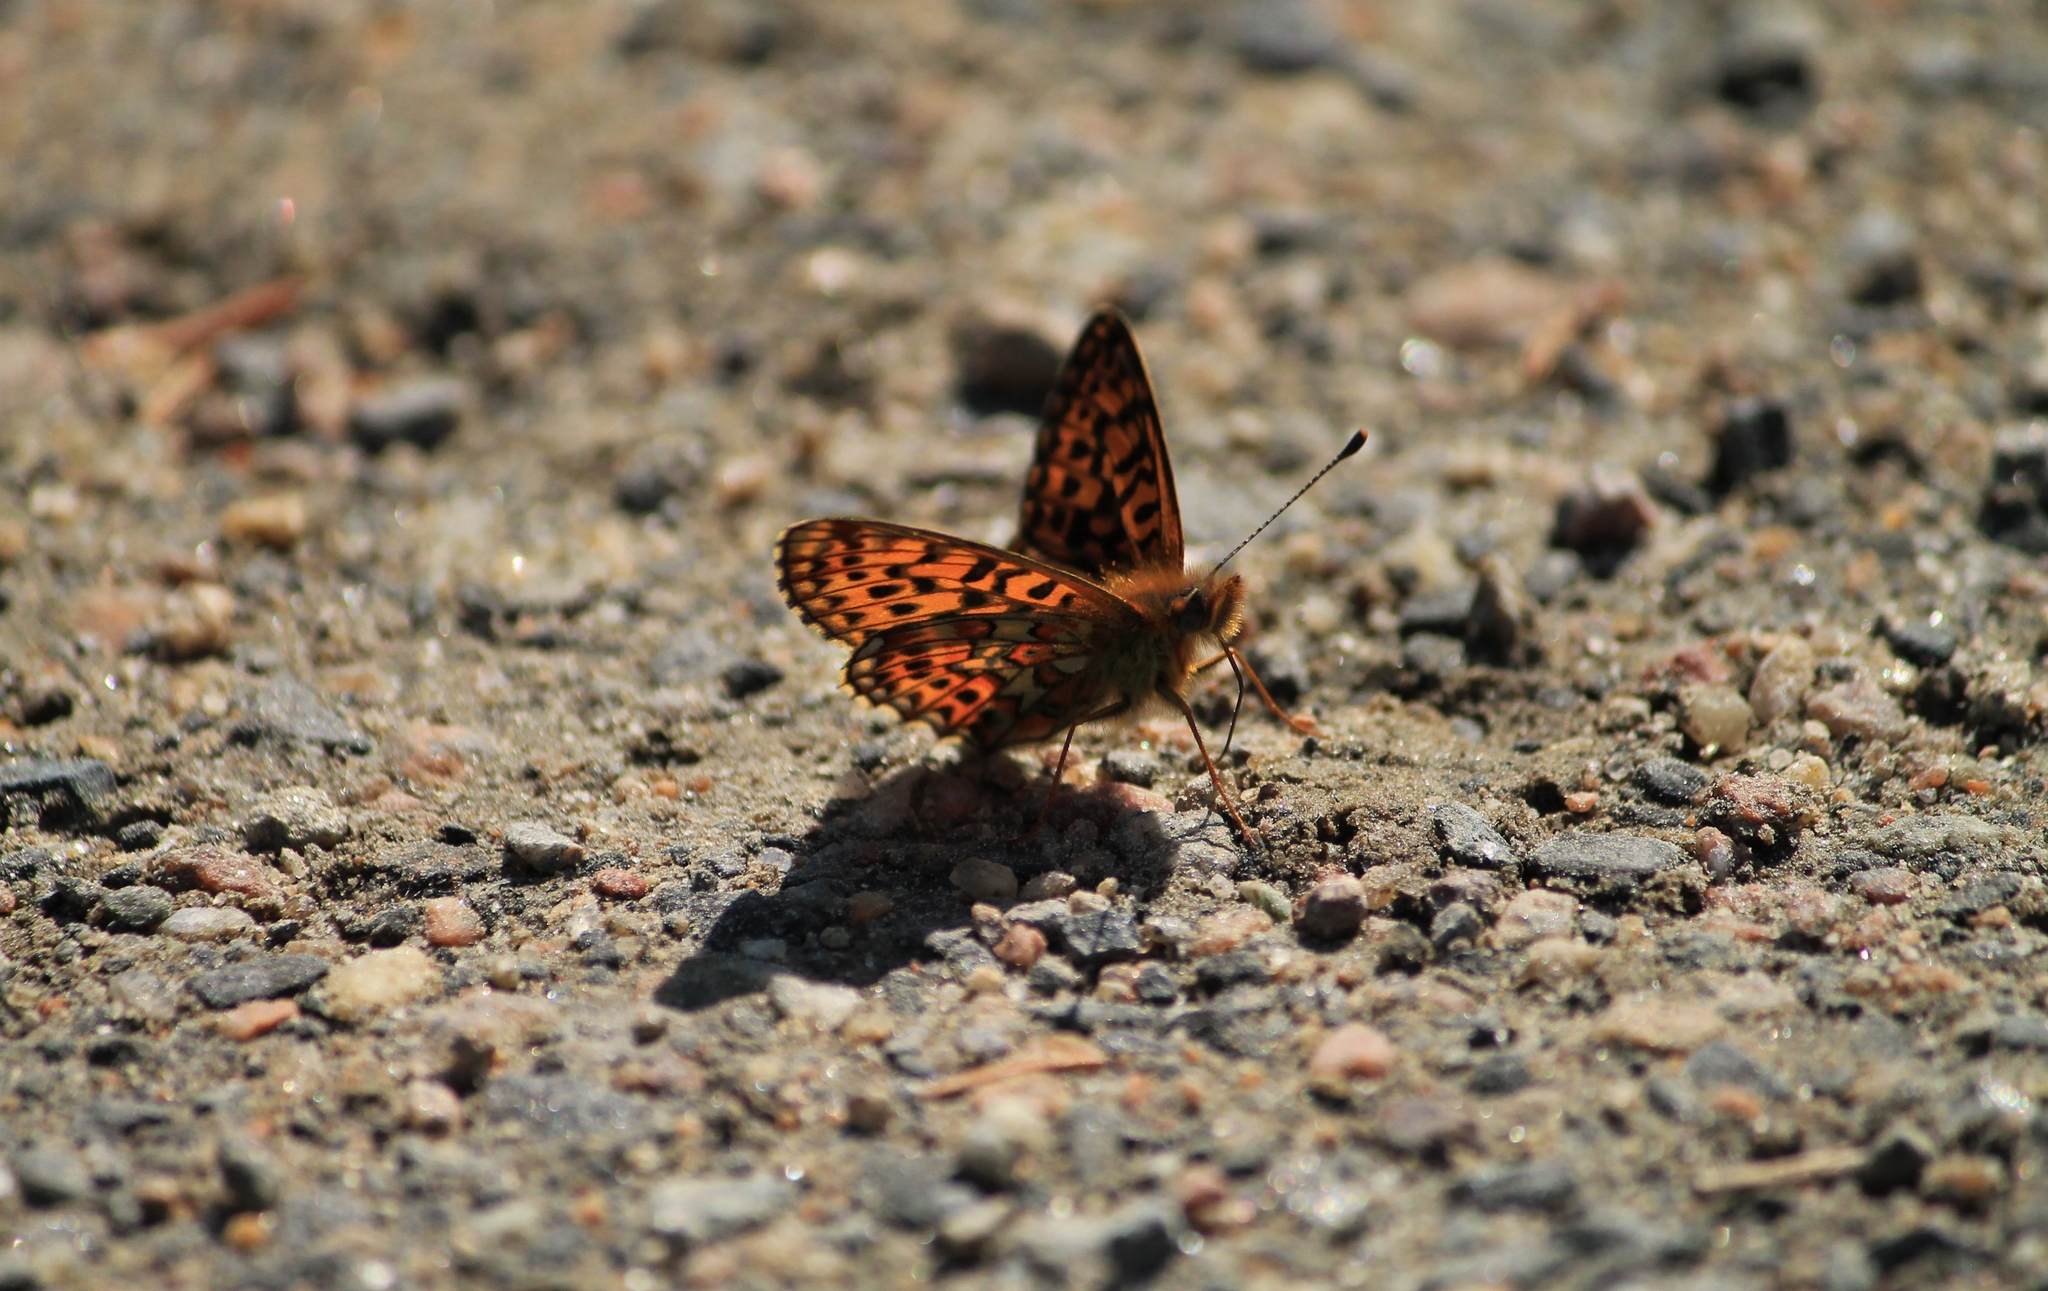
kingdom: Animalia
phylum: Arthropoda
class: Insecta
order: Lepidoptera
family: Nymphalidae
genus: Clossiana
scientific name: Clossiana euphrosyne
